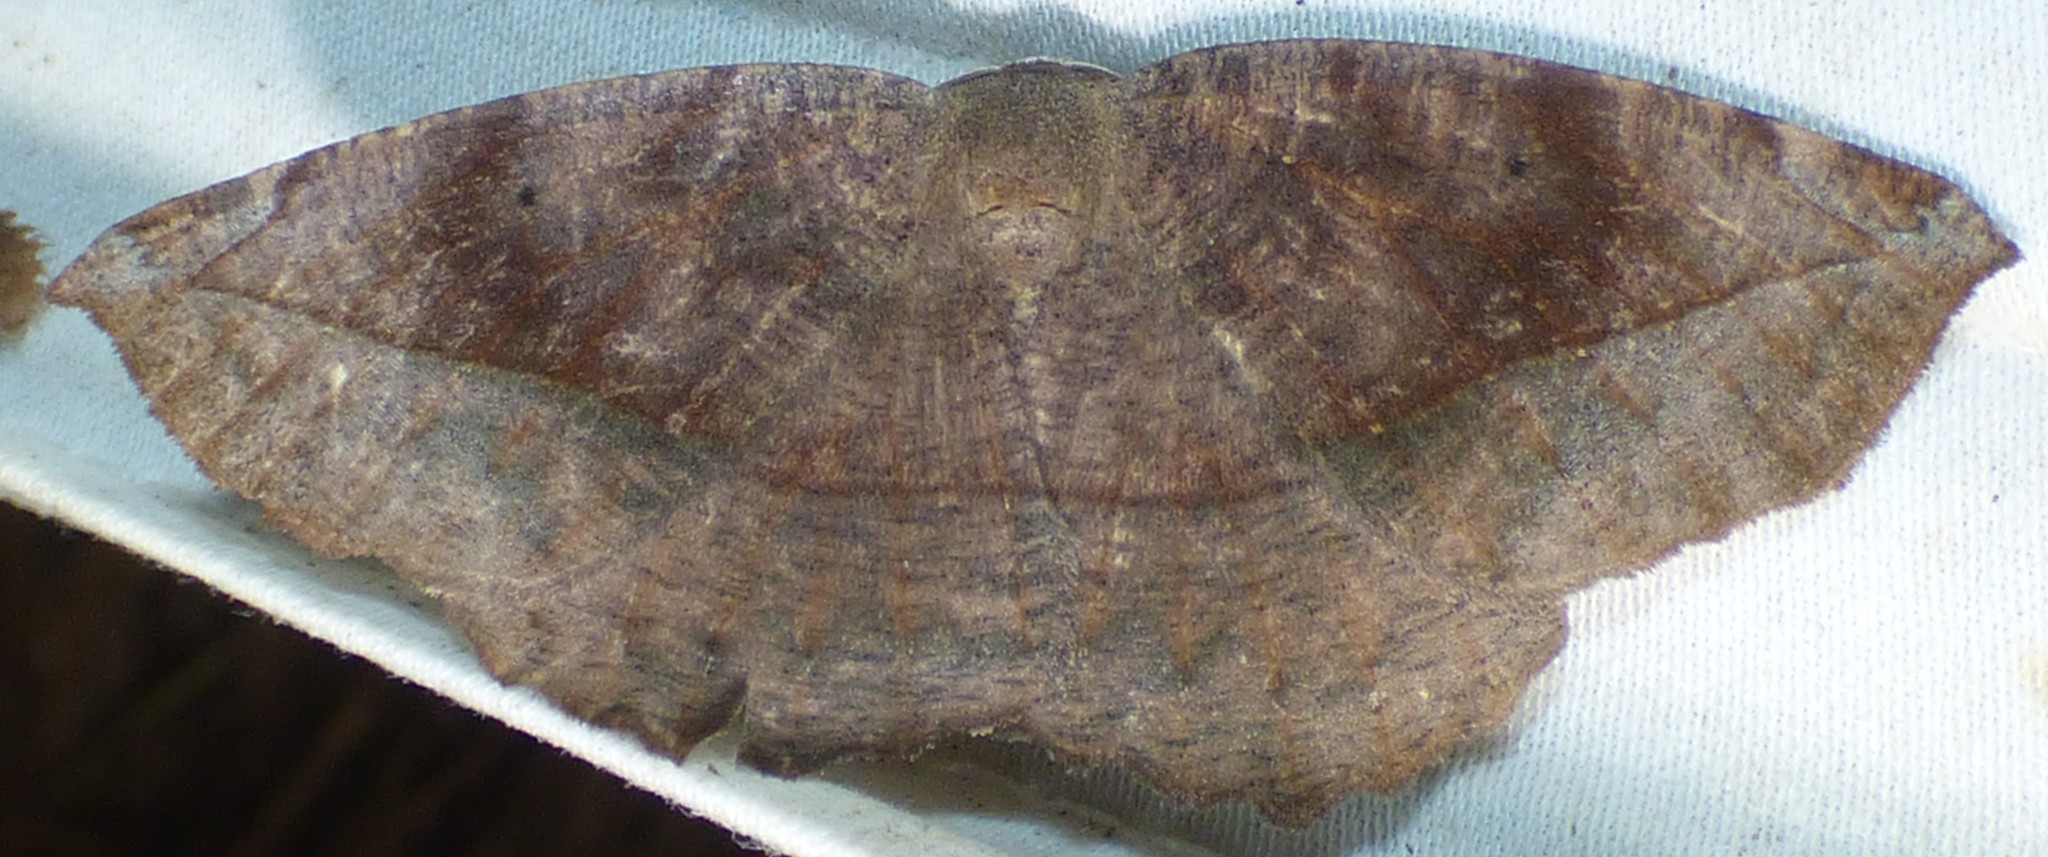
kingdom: Animalia
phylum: Arthropoda
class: Insecta
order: Lepidoptera
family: Geometridae
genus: Eutrapela
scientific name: Eutrapela clemataria
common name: Curved-toothed geometer
